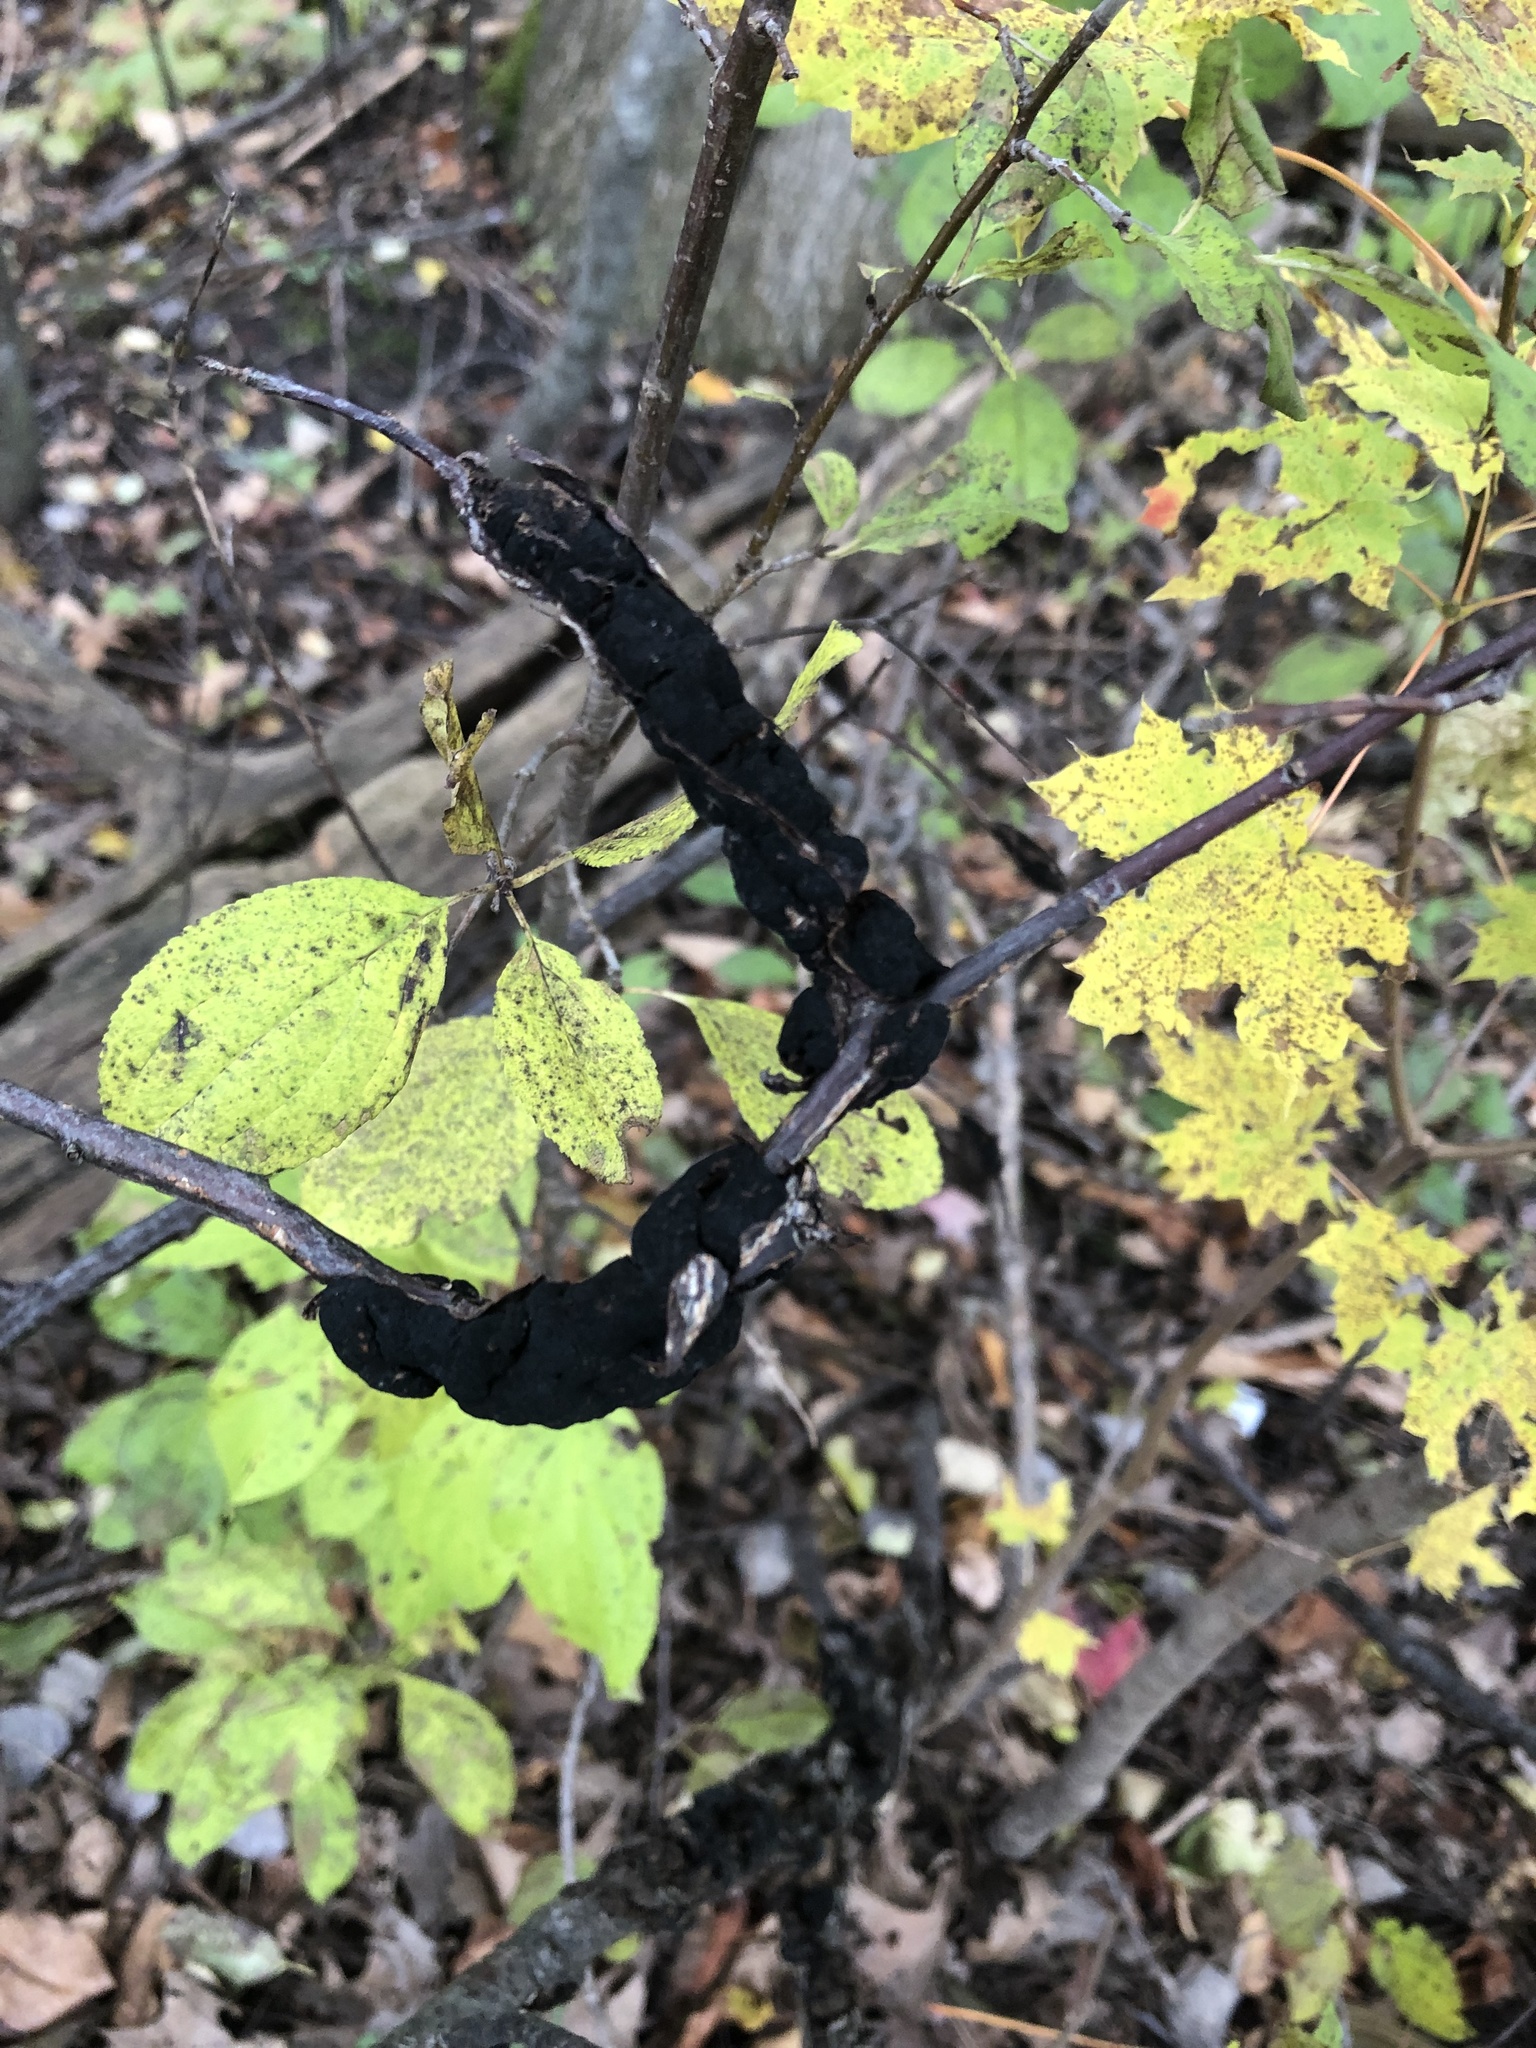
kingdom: Fungi
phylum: Ascomycota
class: Dothideomycetes
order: Venturiales
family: Venturiaceae
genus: Apiosporina
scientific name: Apiosporina morbosa
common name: Black knot
